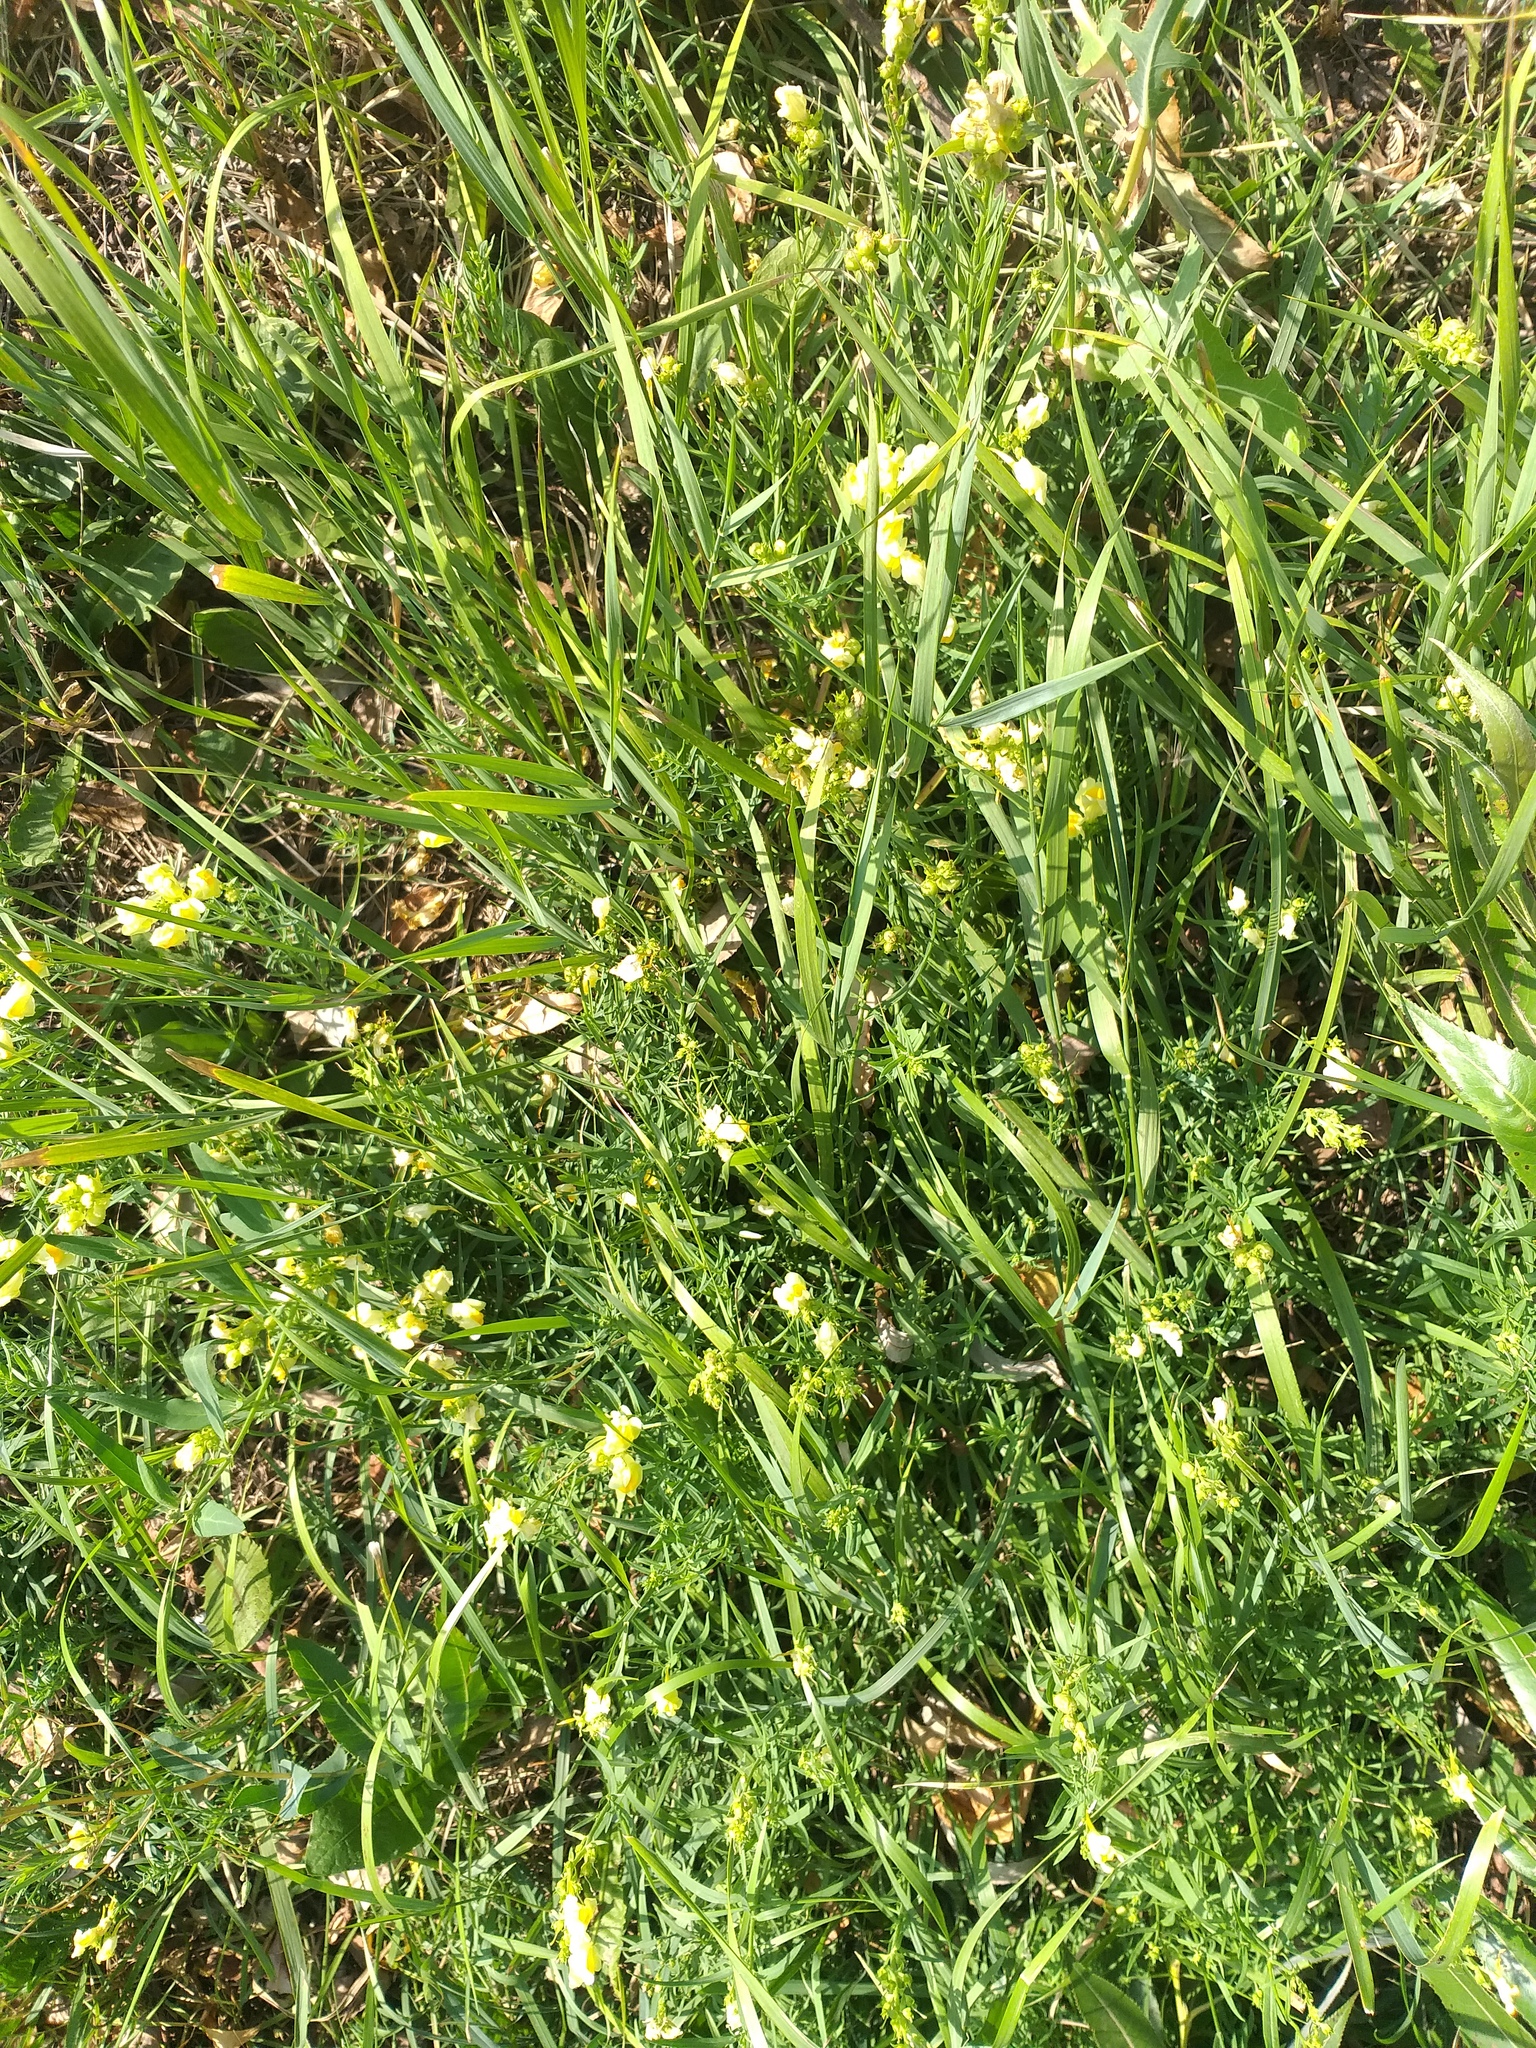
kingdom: Plantae
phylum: Tracheophyta
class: Magnoliopsida
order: Lamiales
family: Plantaginaceae
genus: Linaria
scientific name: Linaria vulgaris
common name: Butter and eggs
